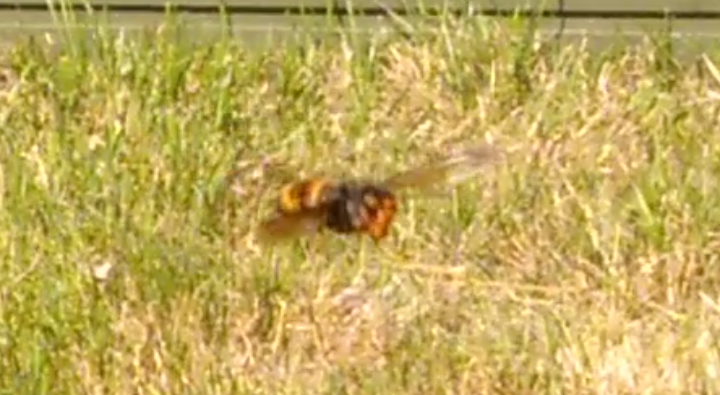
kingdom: Animalia
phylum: Arthropoda
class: Insecta
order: Hymenoptera
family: Vespidae
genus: Vespa
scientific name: Vespa velutina
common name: Asian hornet
